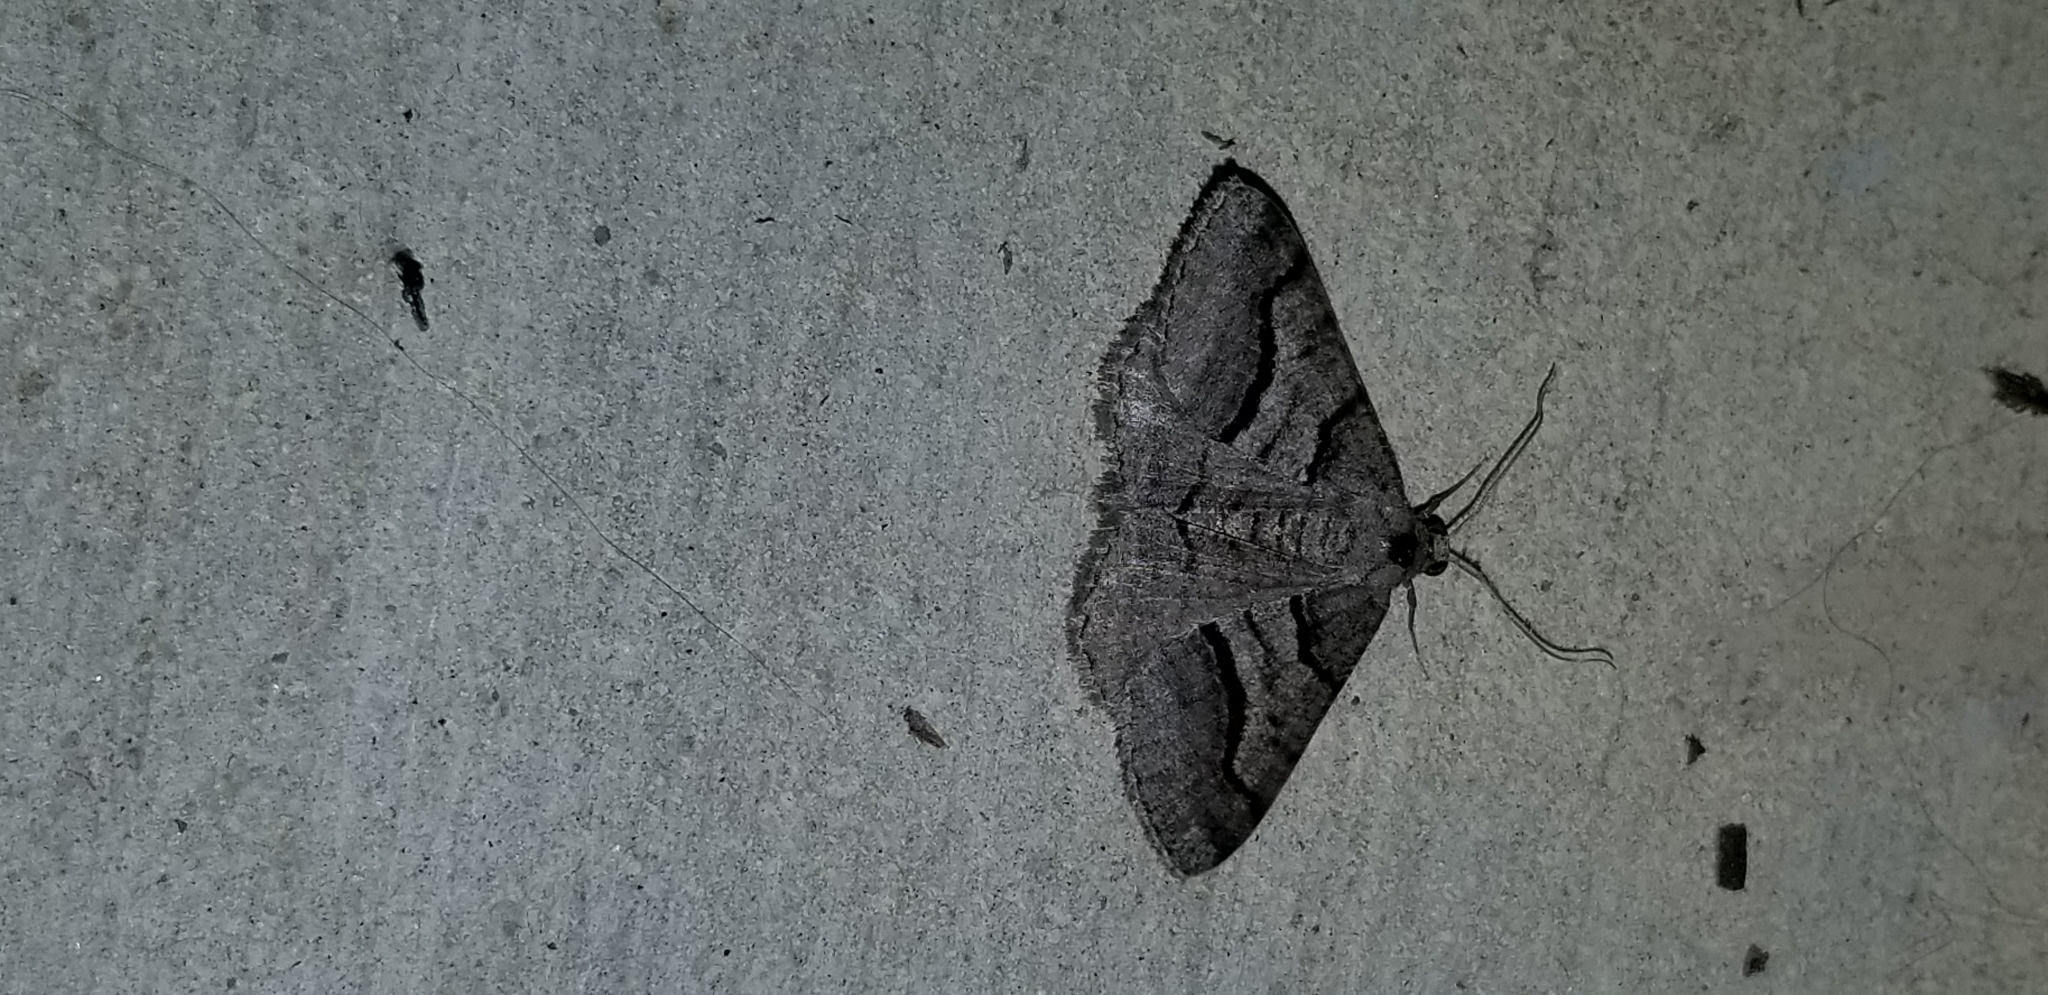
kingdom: Animalia
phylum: Arthropoda
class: Insecta
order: Lepidoptera
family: Geometridae
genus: Digrammia
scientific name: Digrammia continuata
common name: Curve-lined angle
